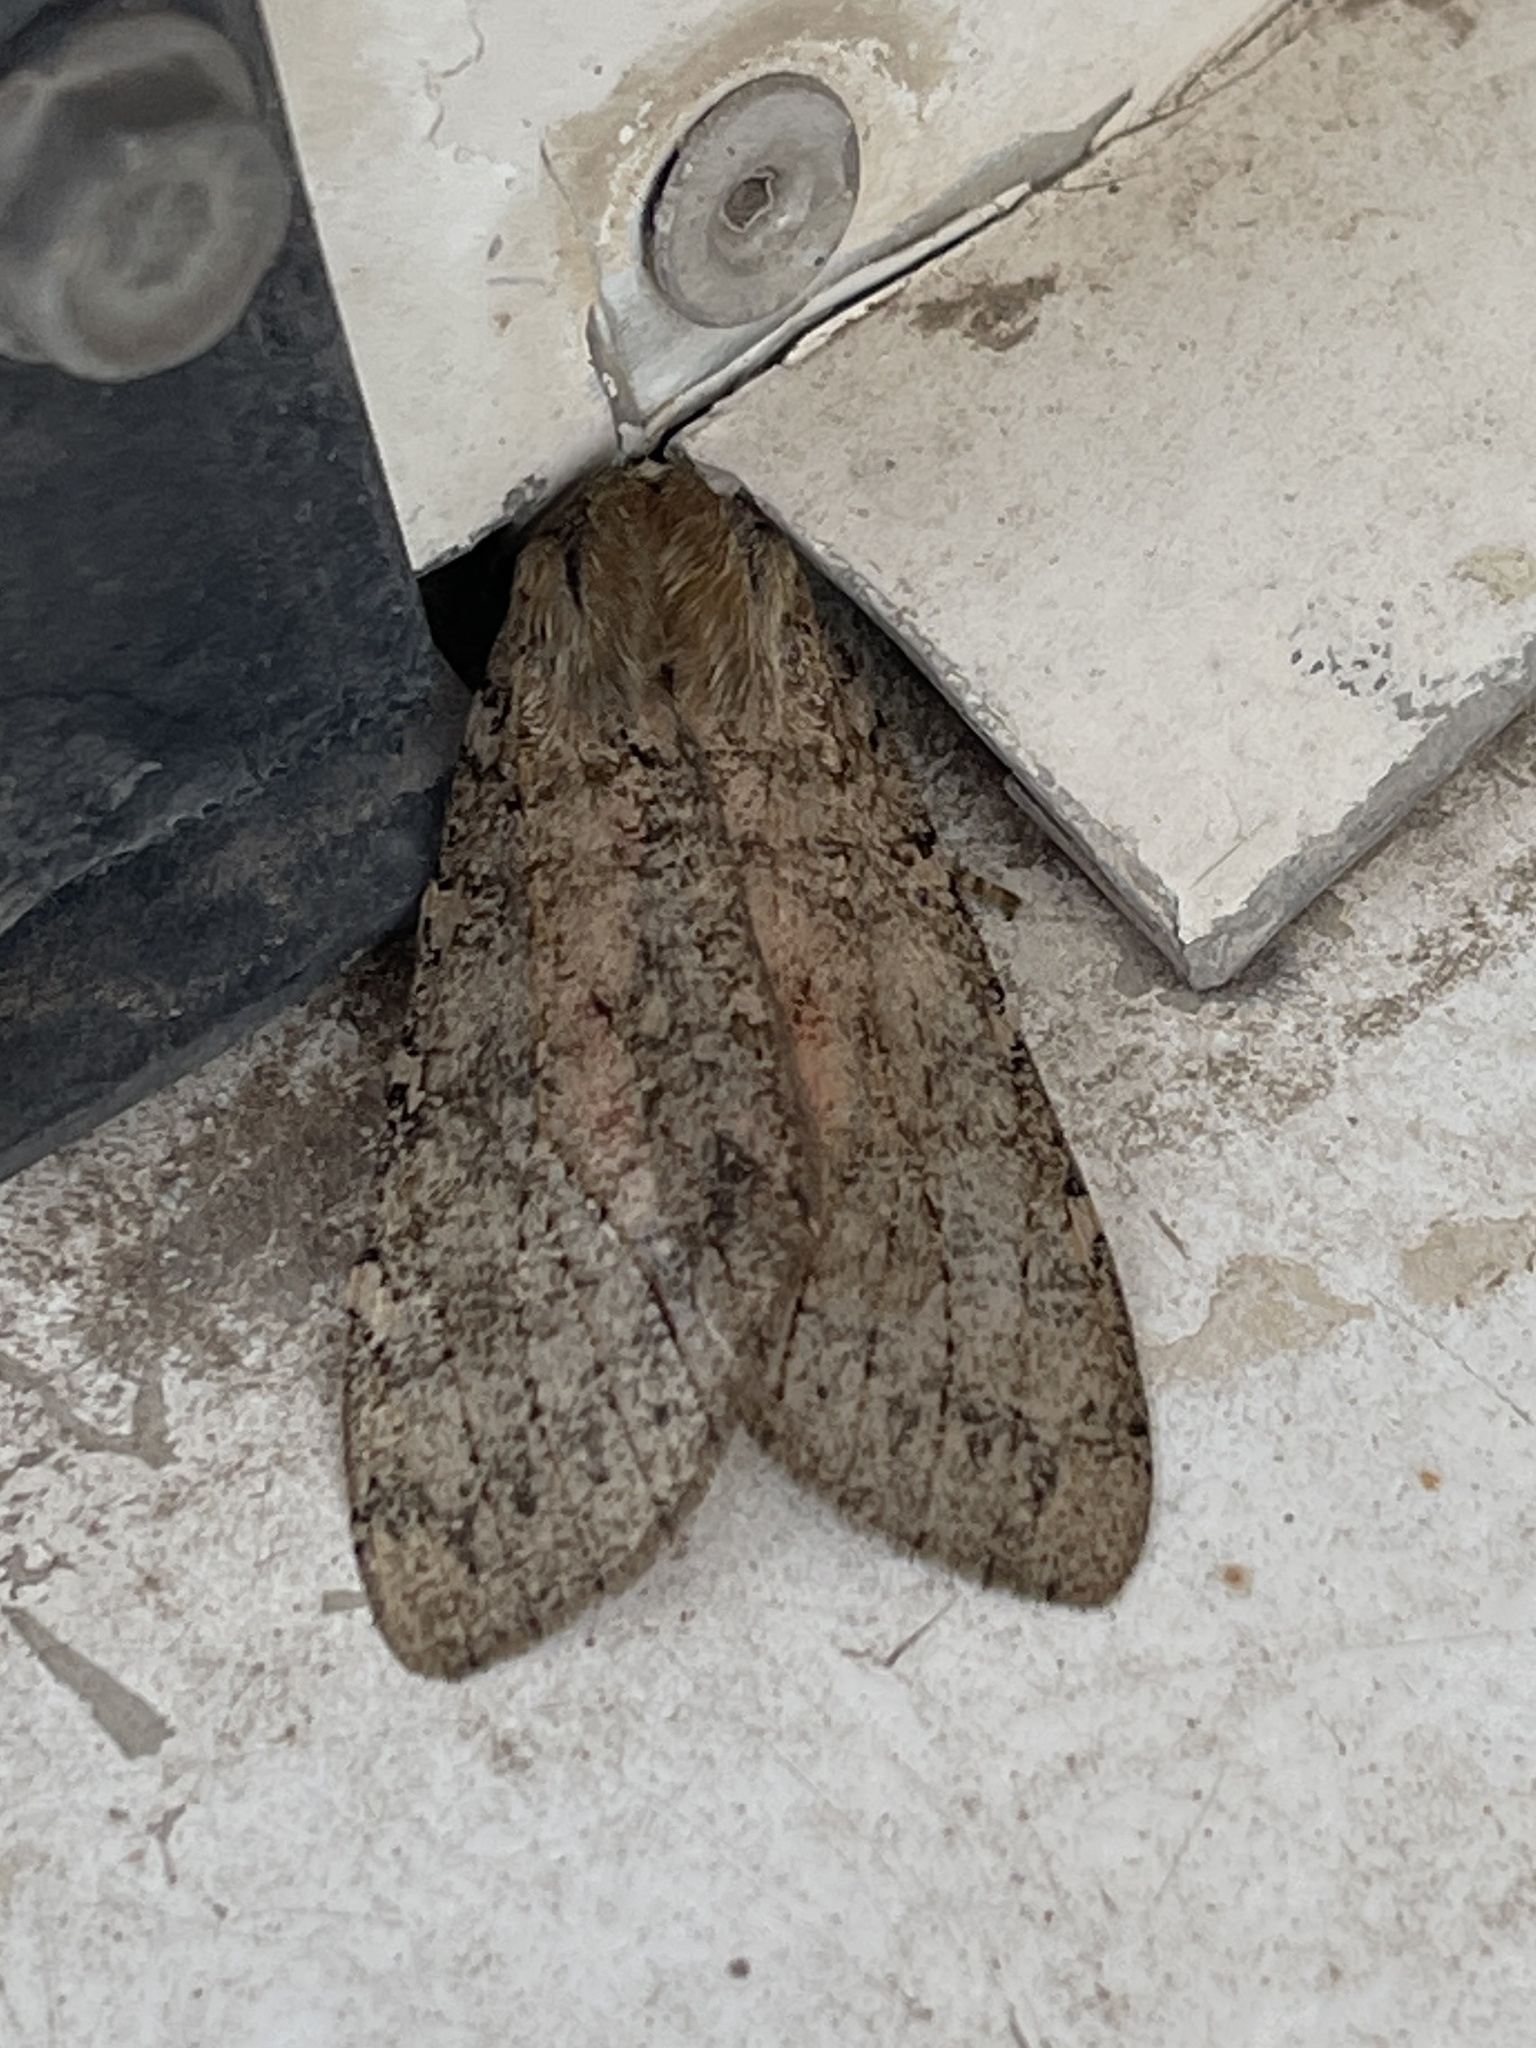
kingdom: Animalia
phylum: Arthropoda
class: Insecta
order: Lepidoptera
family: Erebidae
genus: Hemihyalea
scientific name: Hemihyalea labecula
